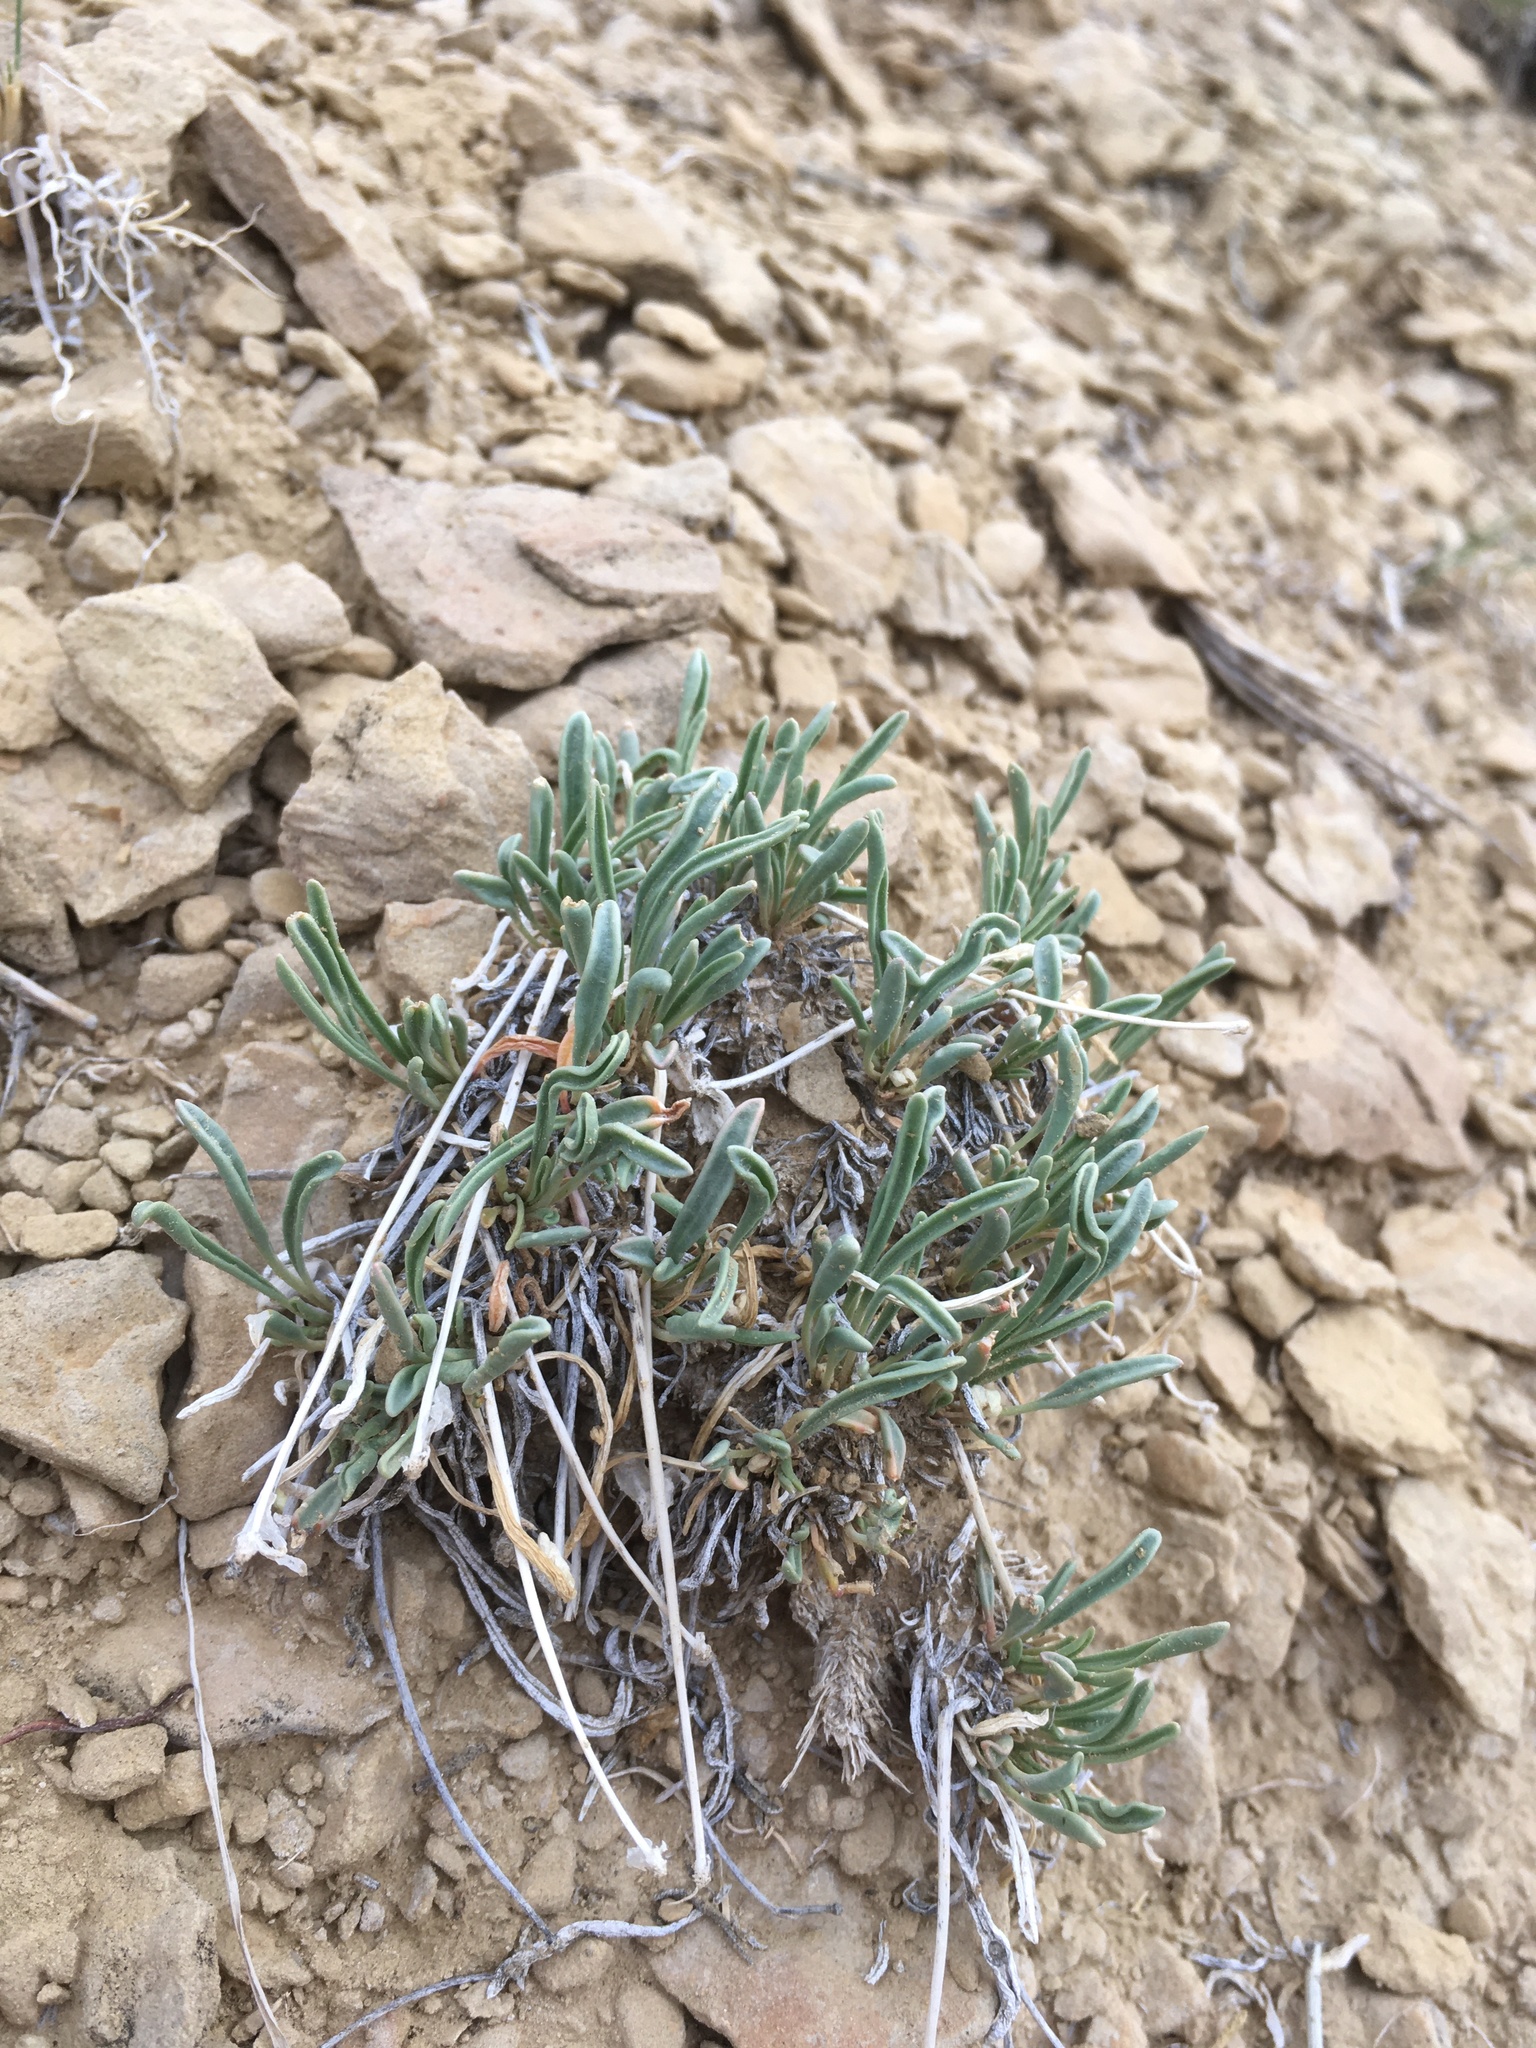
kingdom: Plantae
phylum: Tracheophyta
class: Magnoliopsida
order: Caryophyllales
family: Nyctaginaceae
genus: Abronia
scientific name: Abronia bigelovii
